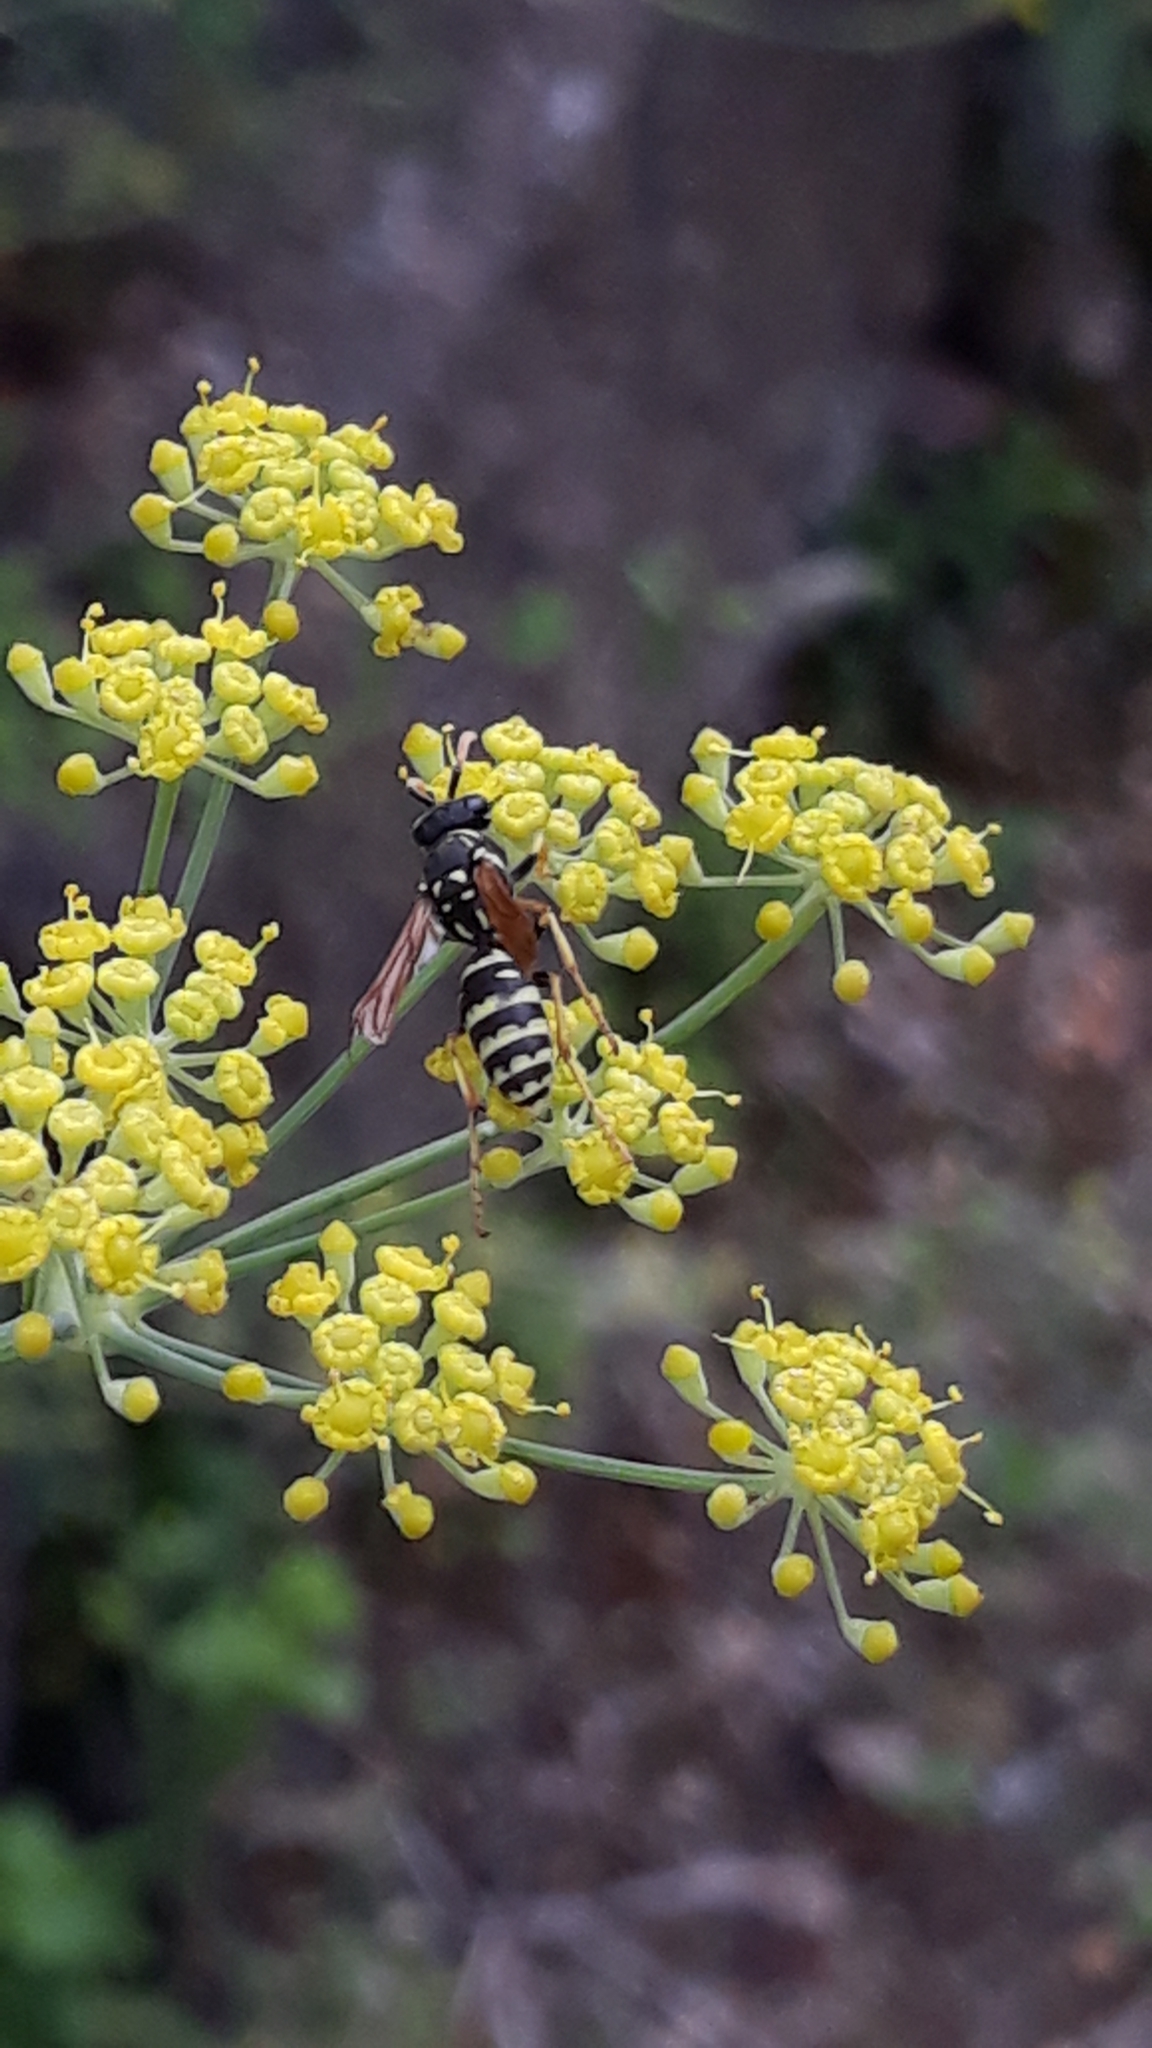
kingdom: Animalia
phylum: Arthropoda
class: Insecta
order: Hymenoptera
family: Eumenidae
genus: Polistes
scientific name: Polistes gallicus
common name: Paper wasp
